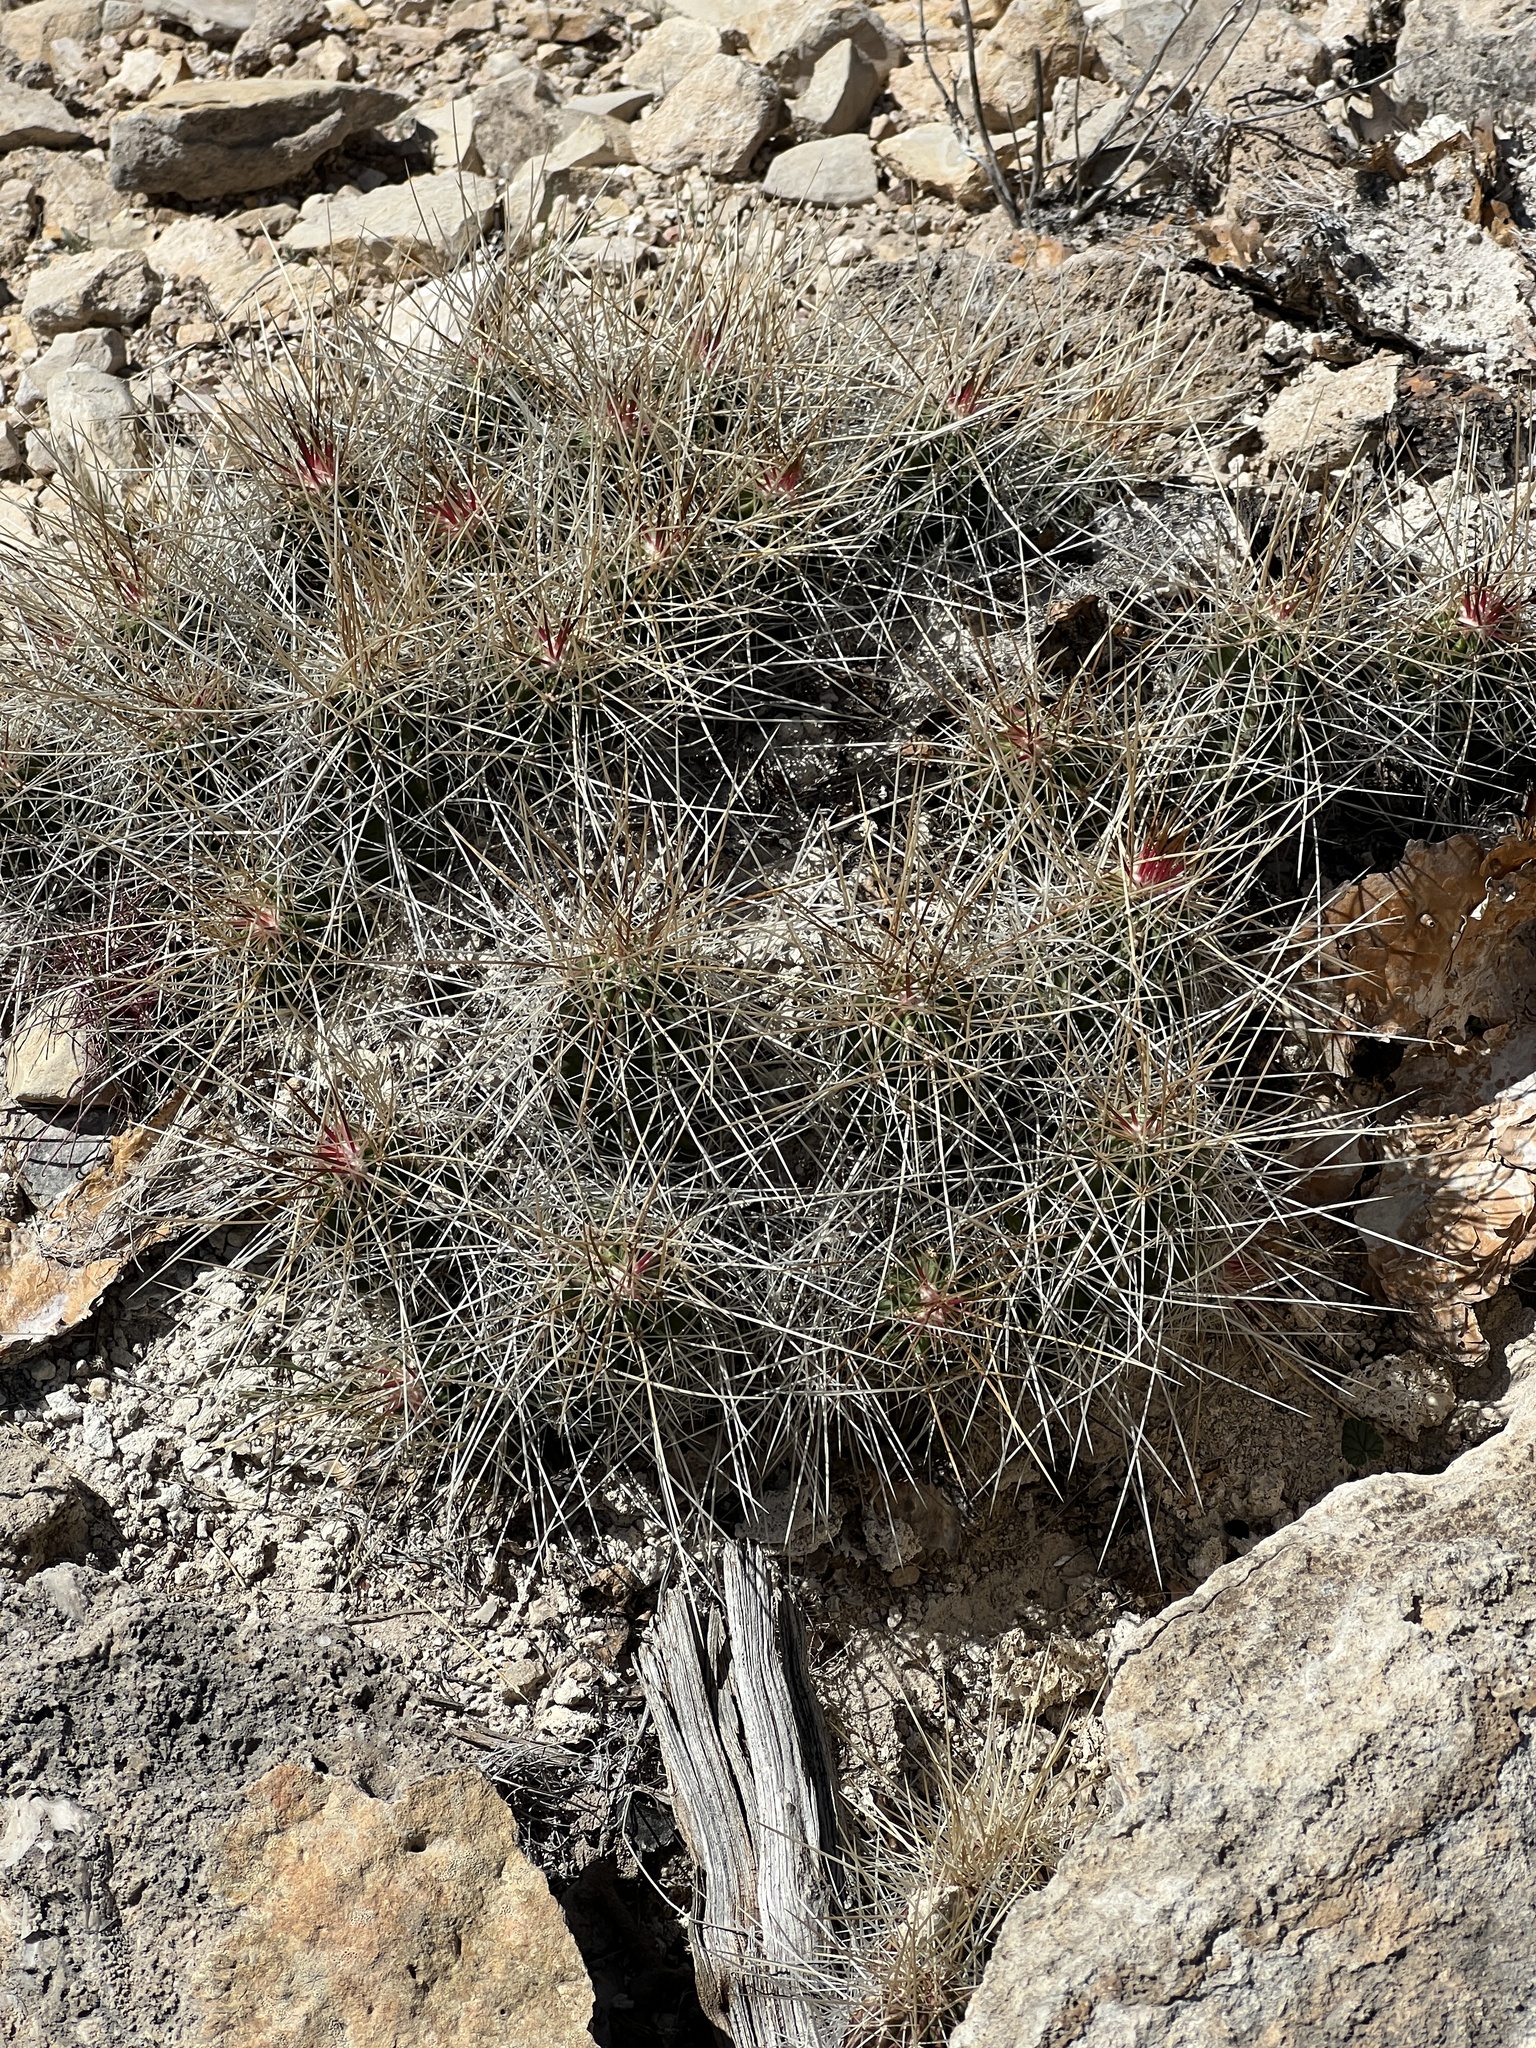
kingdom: Plantae
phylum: Tracheophyta
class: Magnoliopsida
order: Caryophyllales
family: Cactaceae
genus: Echinocereus
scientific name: Echinocereus stramineus
